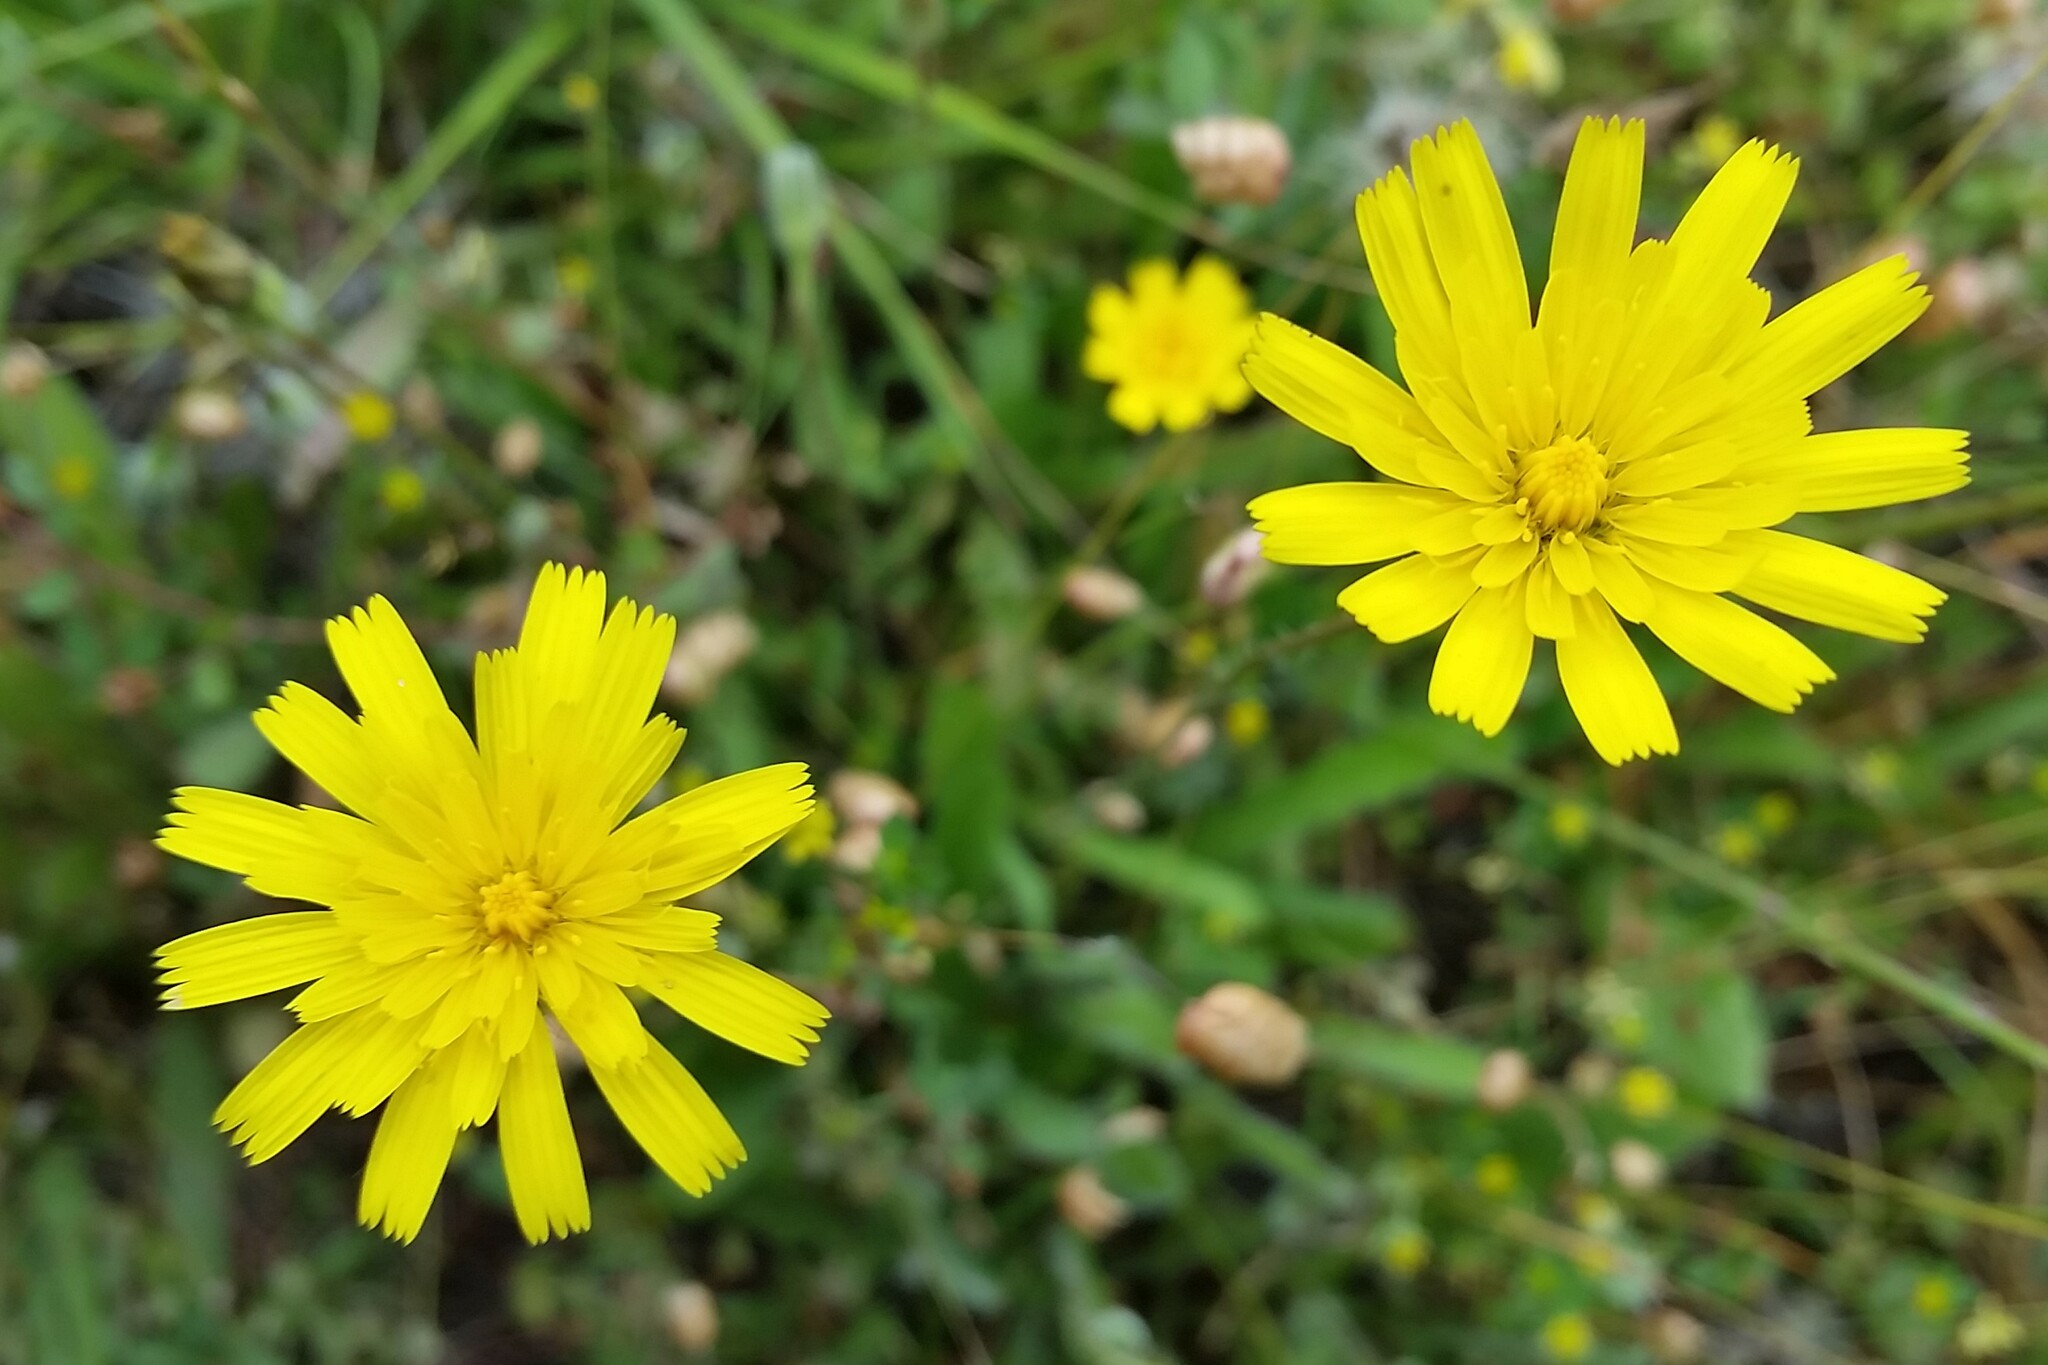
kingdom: Plantae
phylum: Tracheophyta
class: Magnoliopsida
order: Asterales
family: Asteraceae
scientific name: Asteraceae
